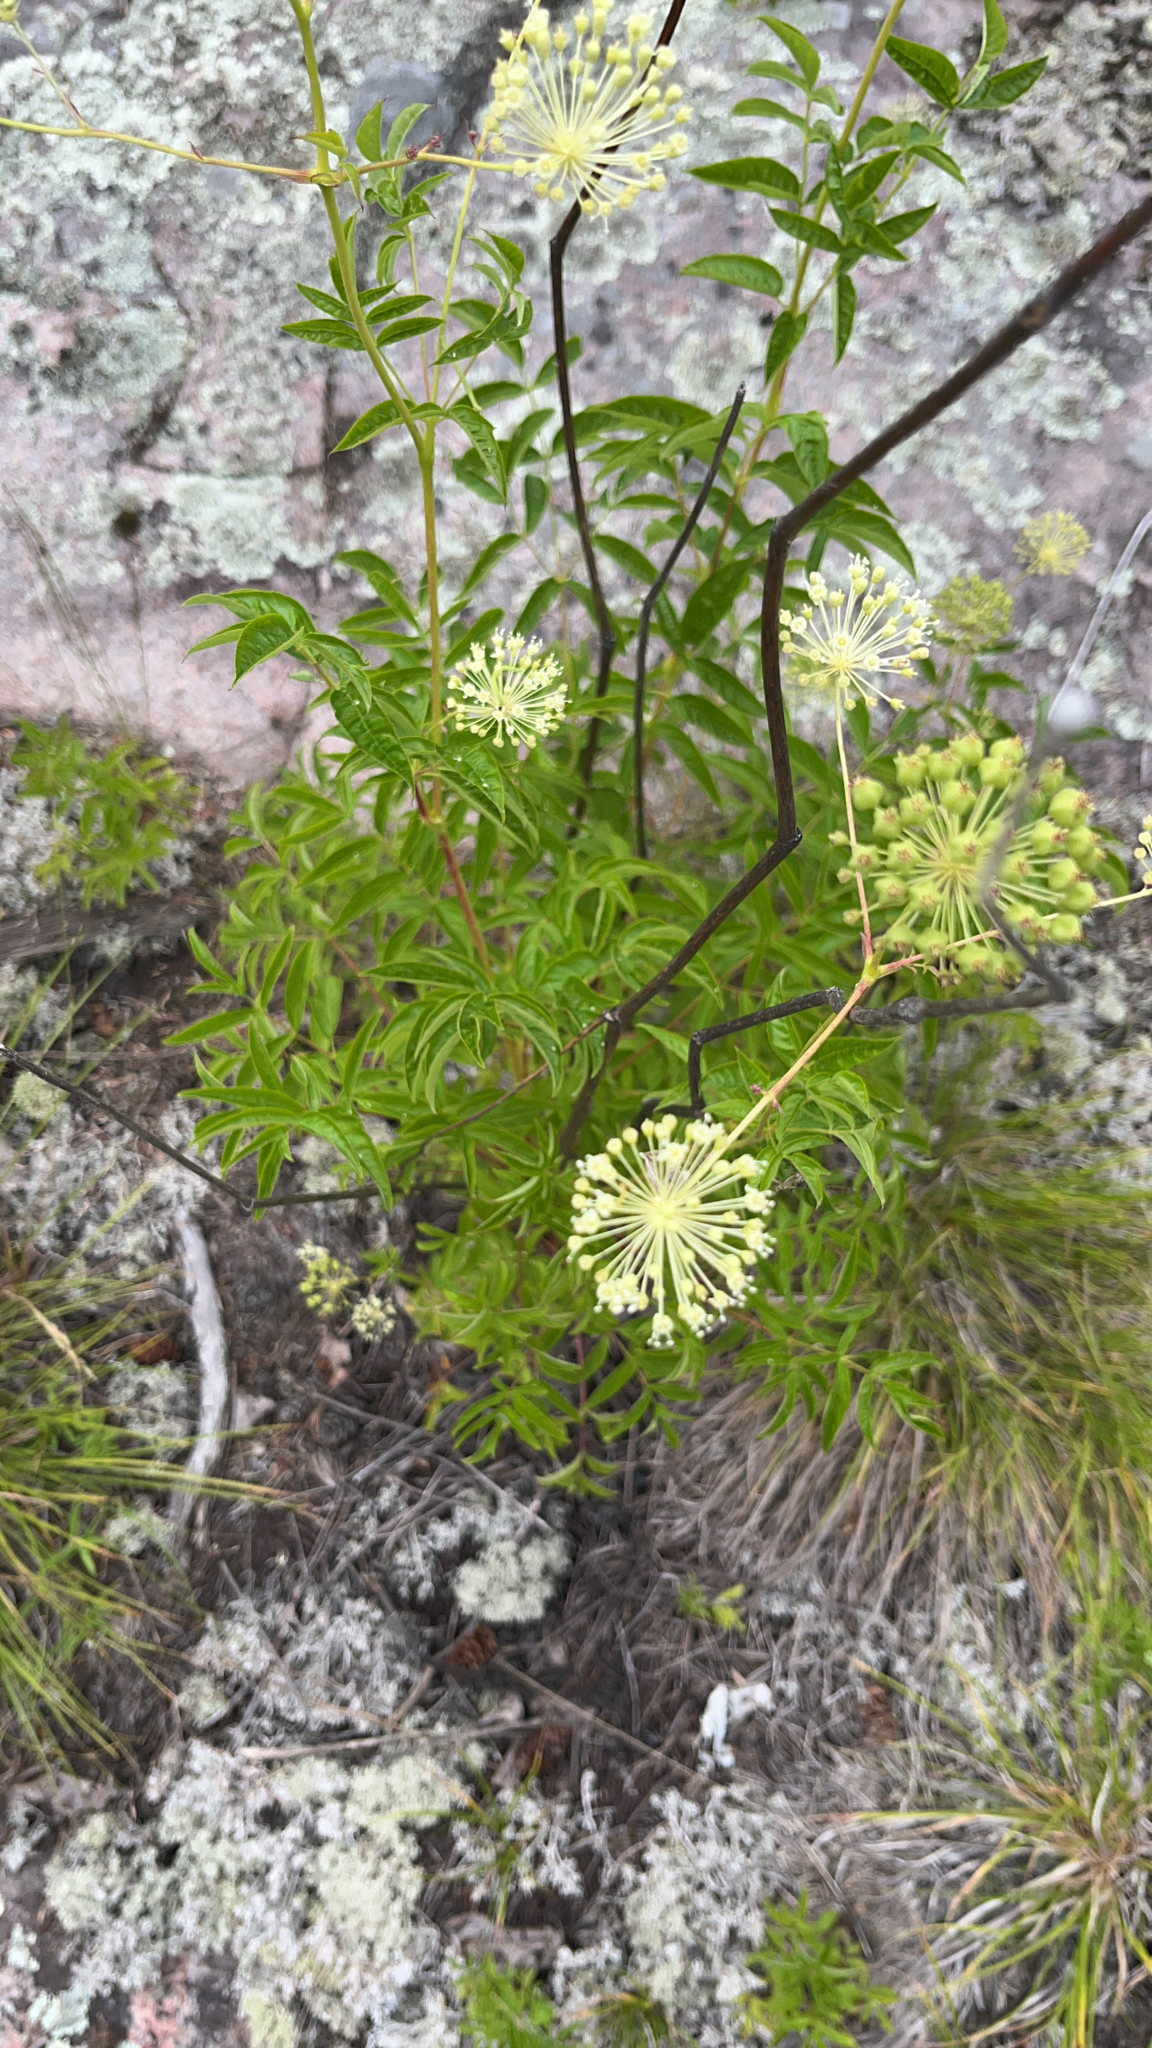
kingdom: Plantae
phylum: Tracheophyta
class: Magnoliopsida
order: Apiales
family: Araliaceae
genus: Aralia
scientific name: Aralia hispida
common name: Bristly sarsaparilla
